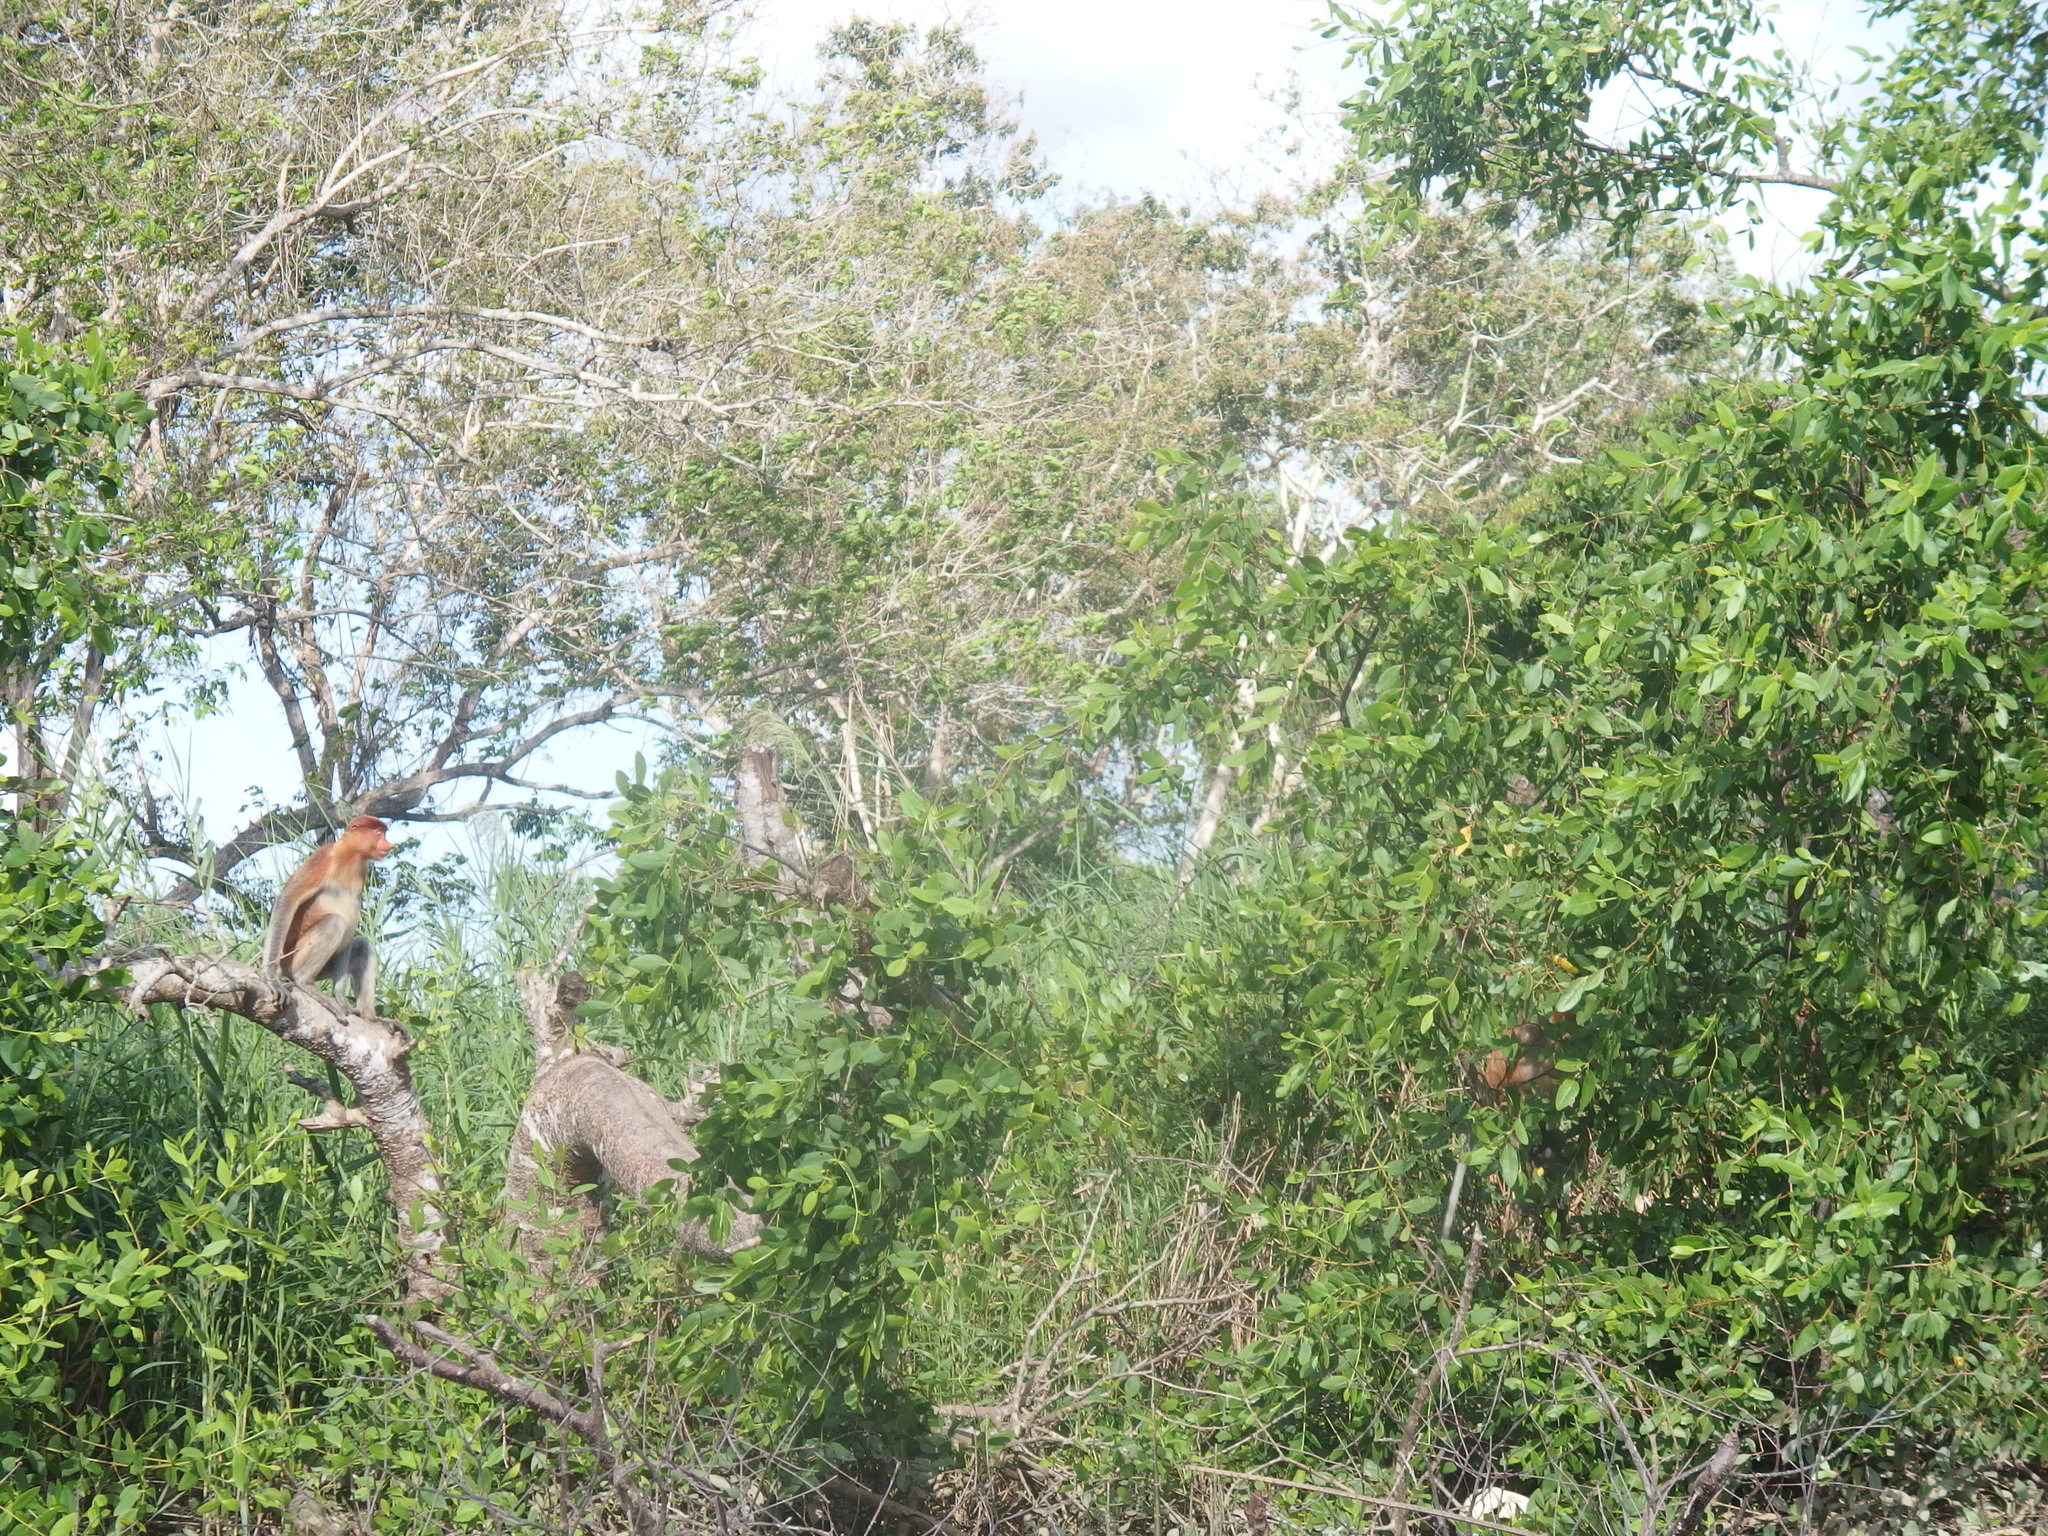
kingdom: Animalia
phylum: Chordata
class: Mammalia
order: Primates
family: Cercopithecidae
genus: Nasalis
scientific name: Nasalis larvatus
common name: Proboscis monkey
